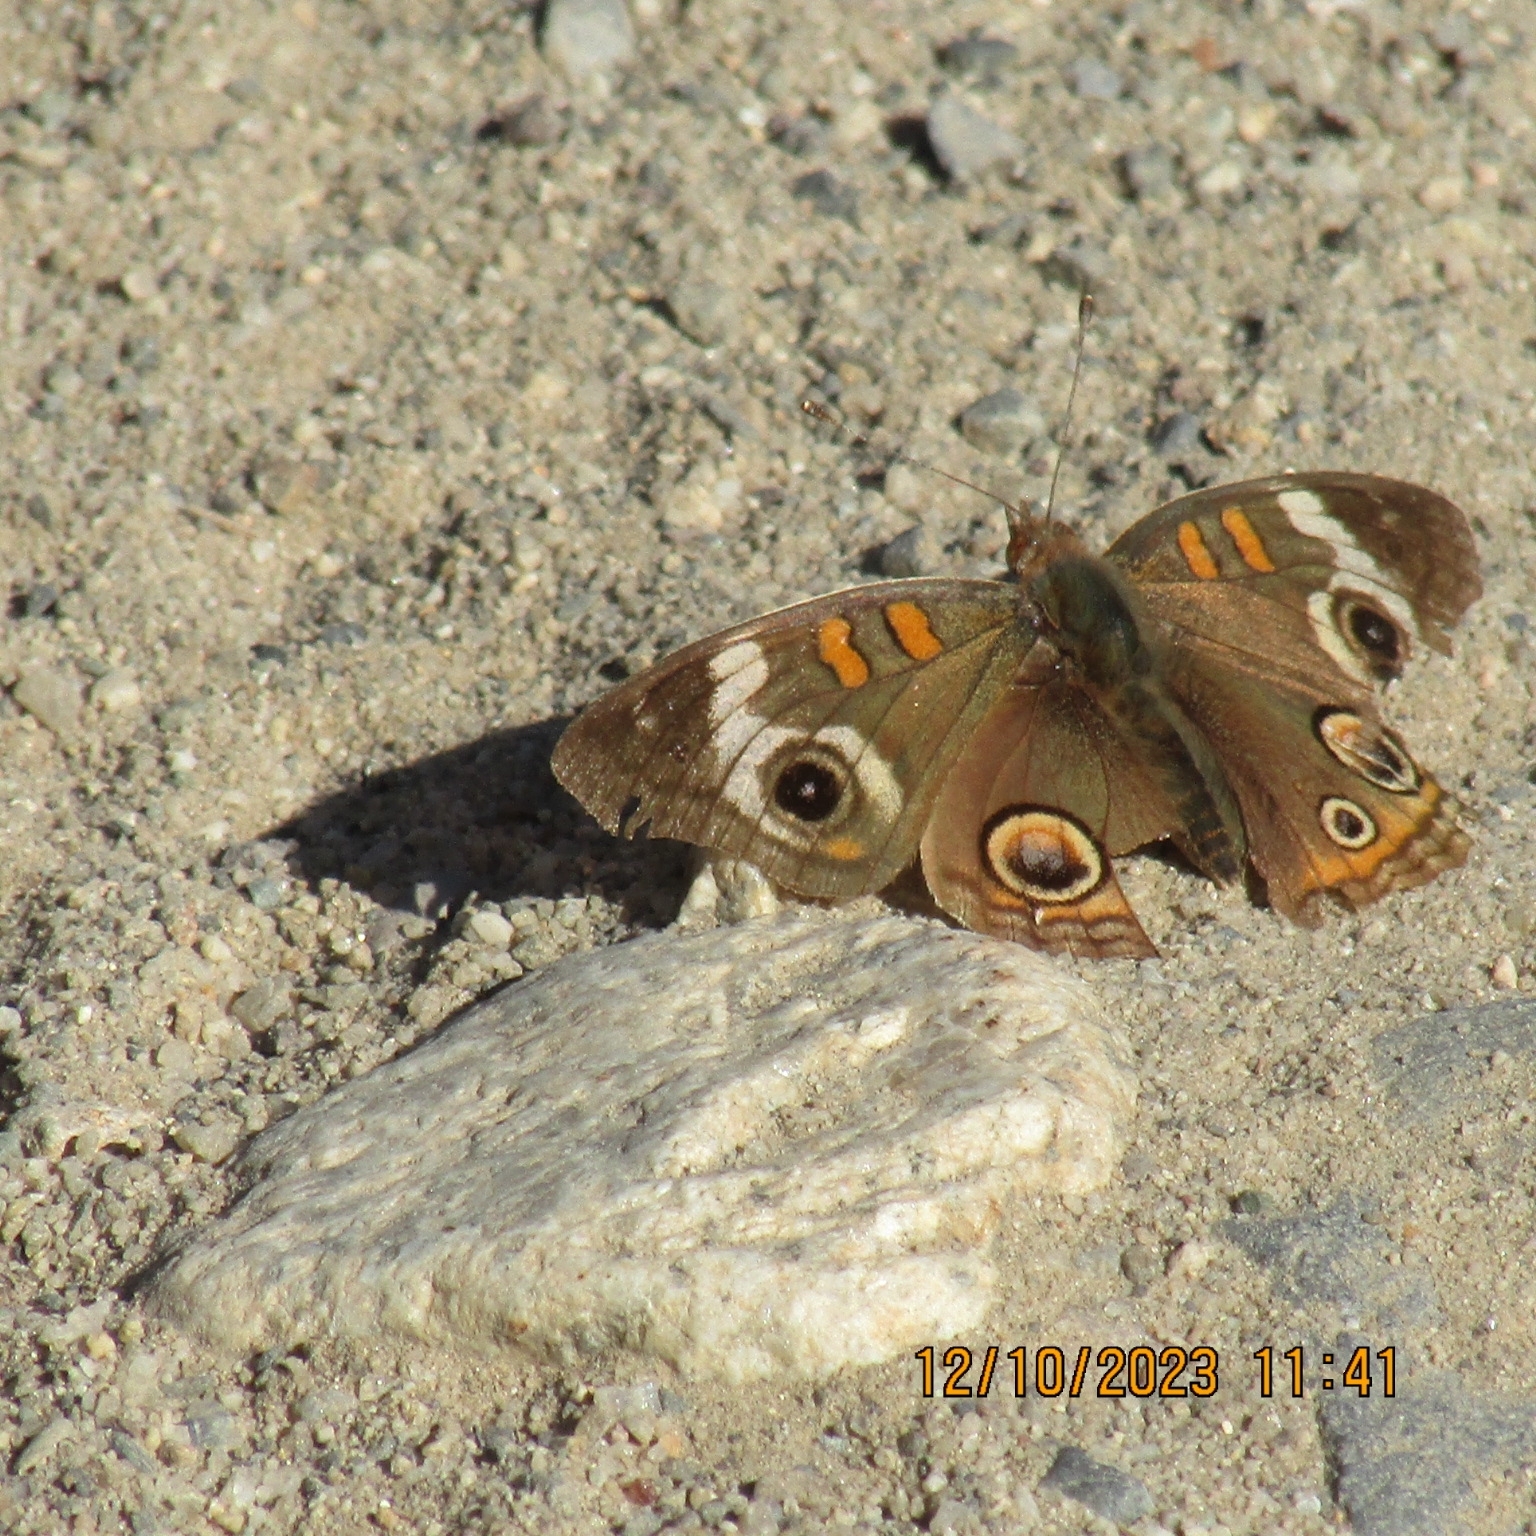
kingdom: Animalia
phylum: Arthropoda
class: Insecta
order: Lepidoptera
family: Nymphalidae
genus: Junonia
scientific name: Junonia grisea
